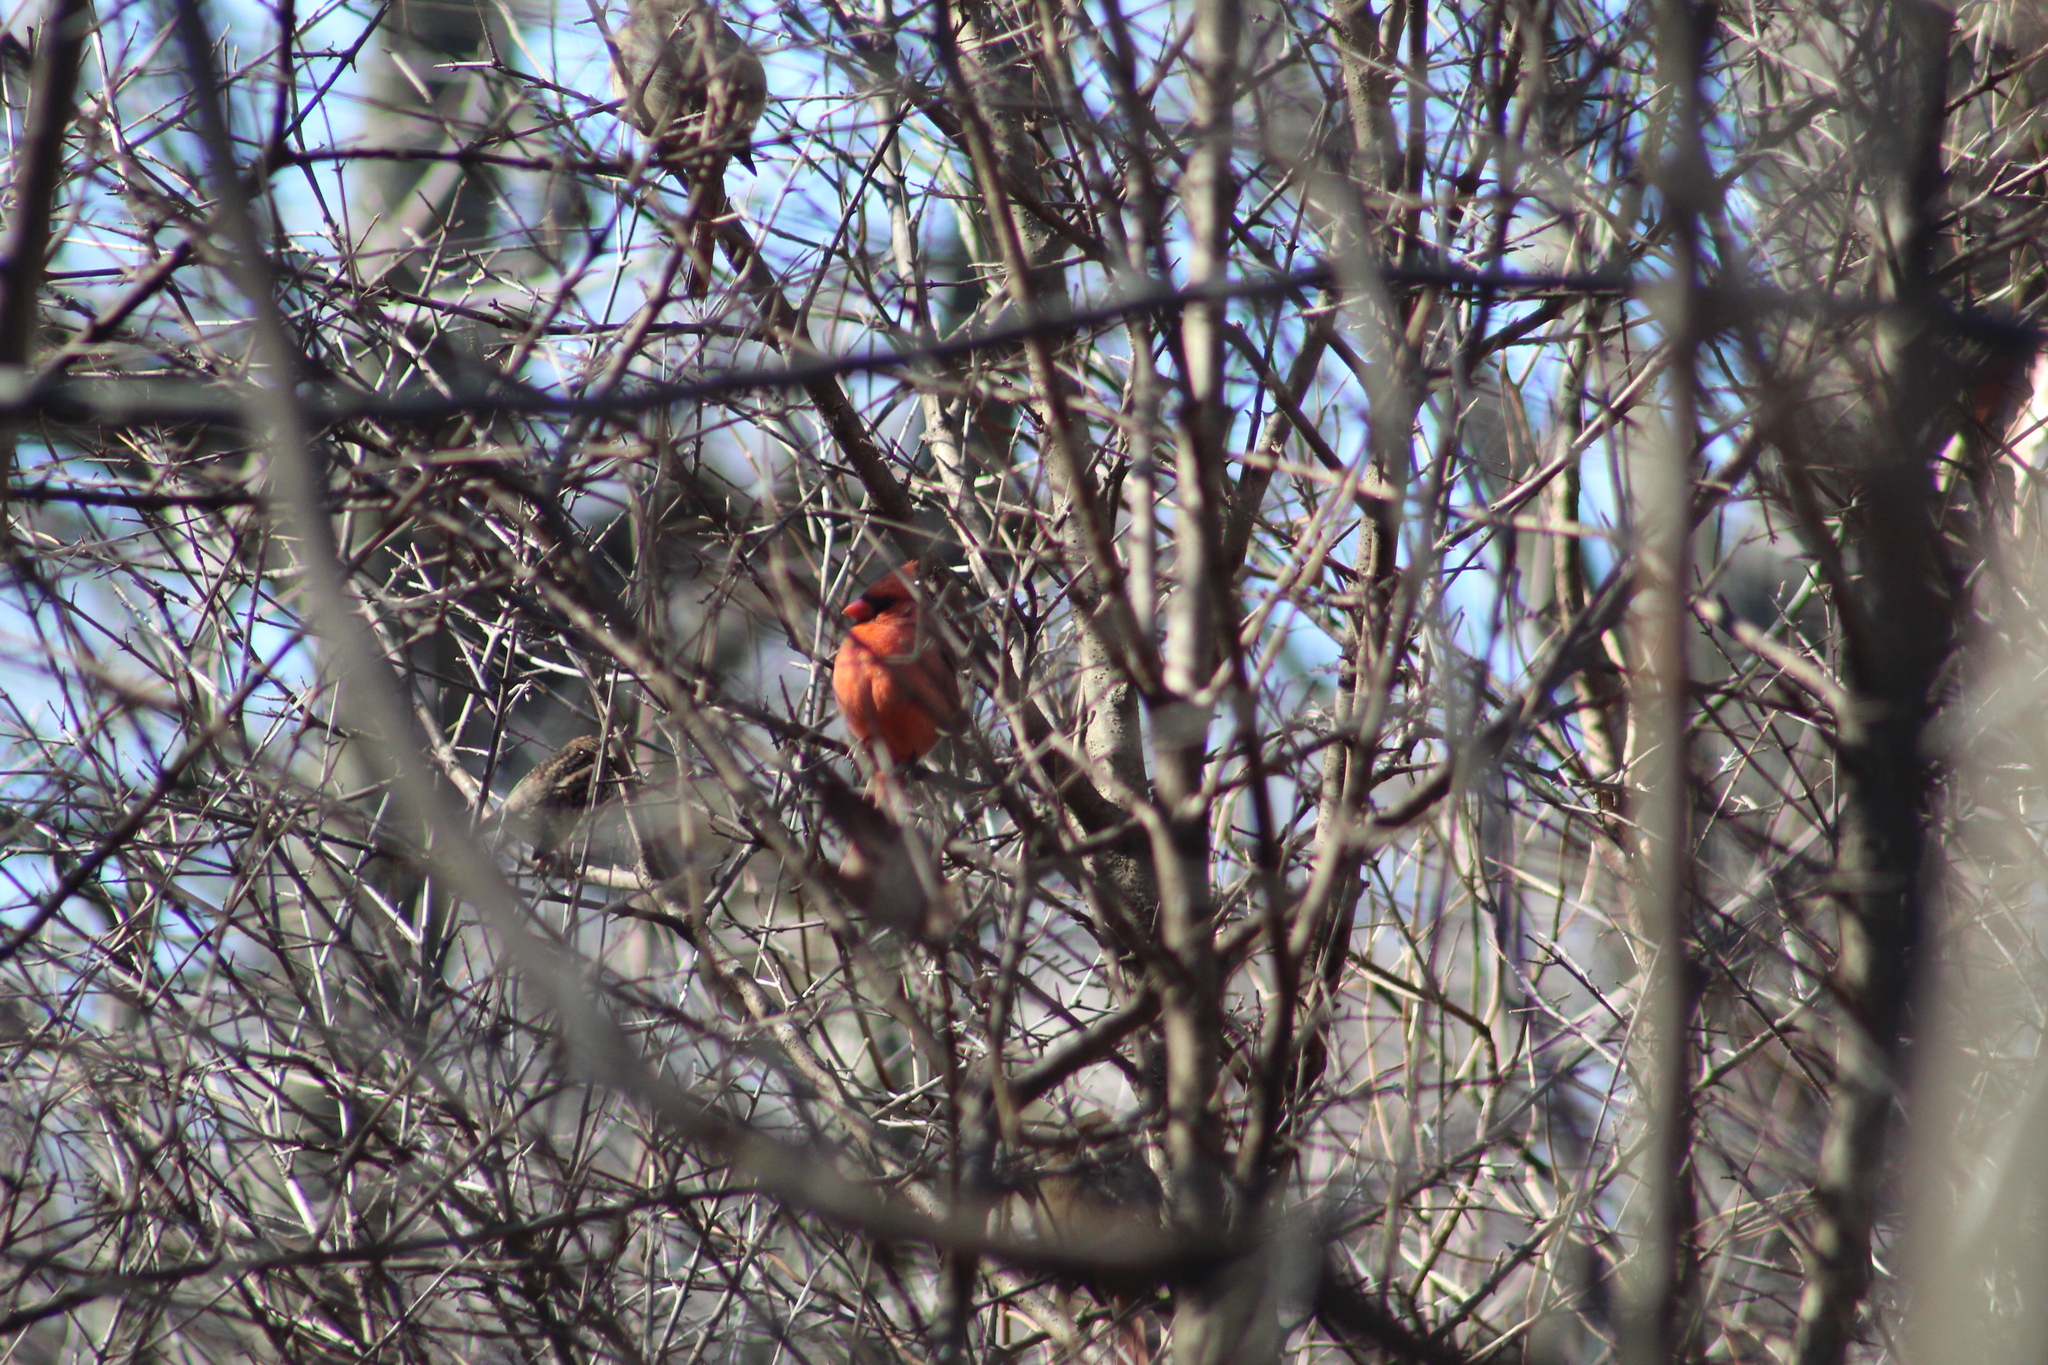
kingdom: Animalia
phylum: Chordata
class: Aves
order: Passeriformes
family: Cardinalidae
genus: Cardinalis
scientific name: Cardinalis cardinalis
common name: Northern cardinal
